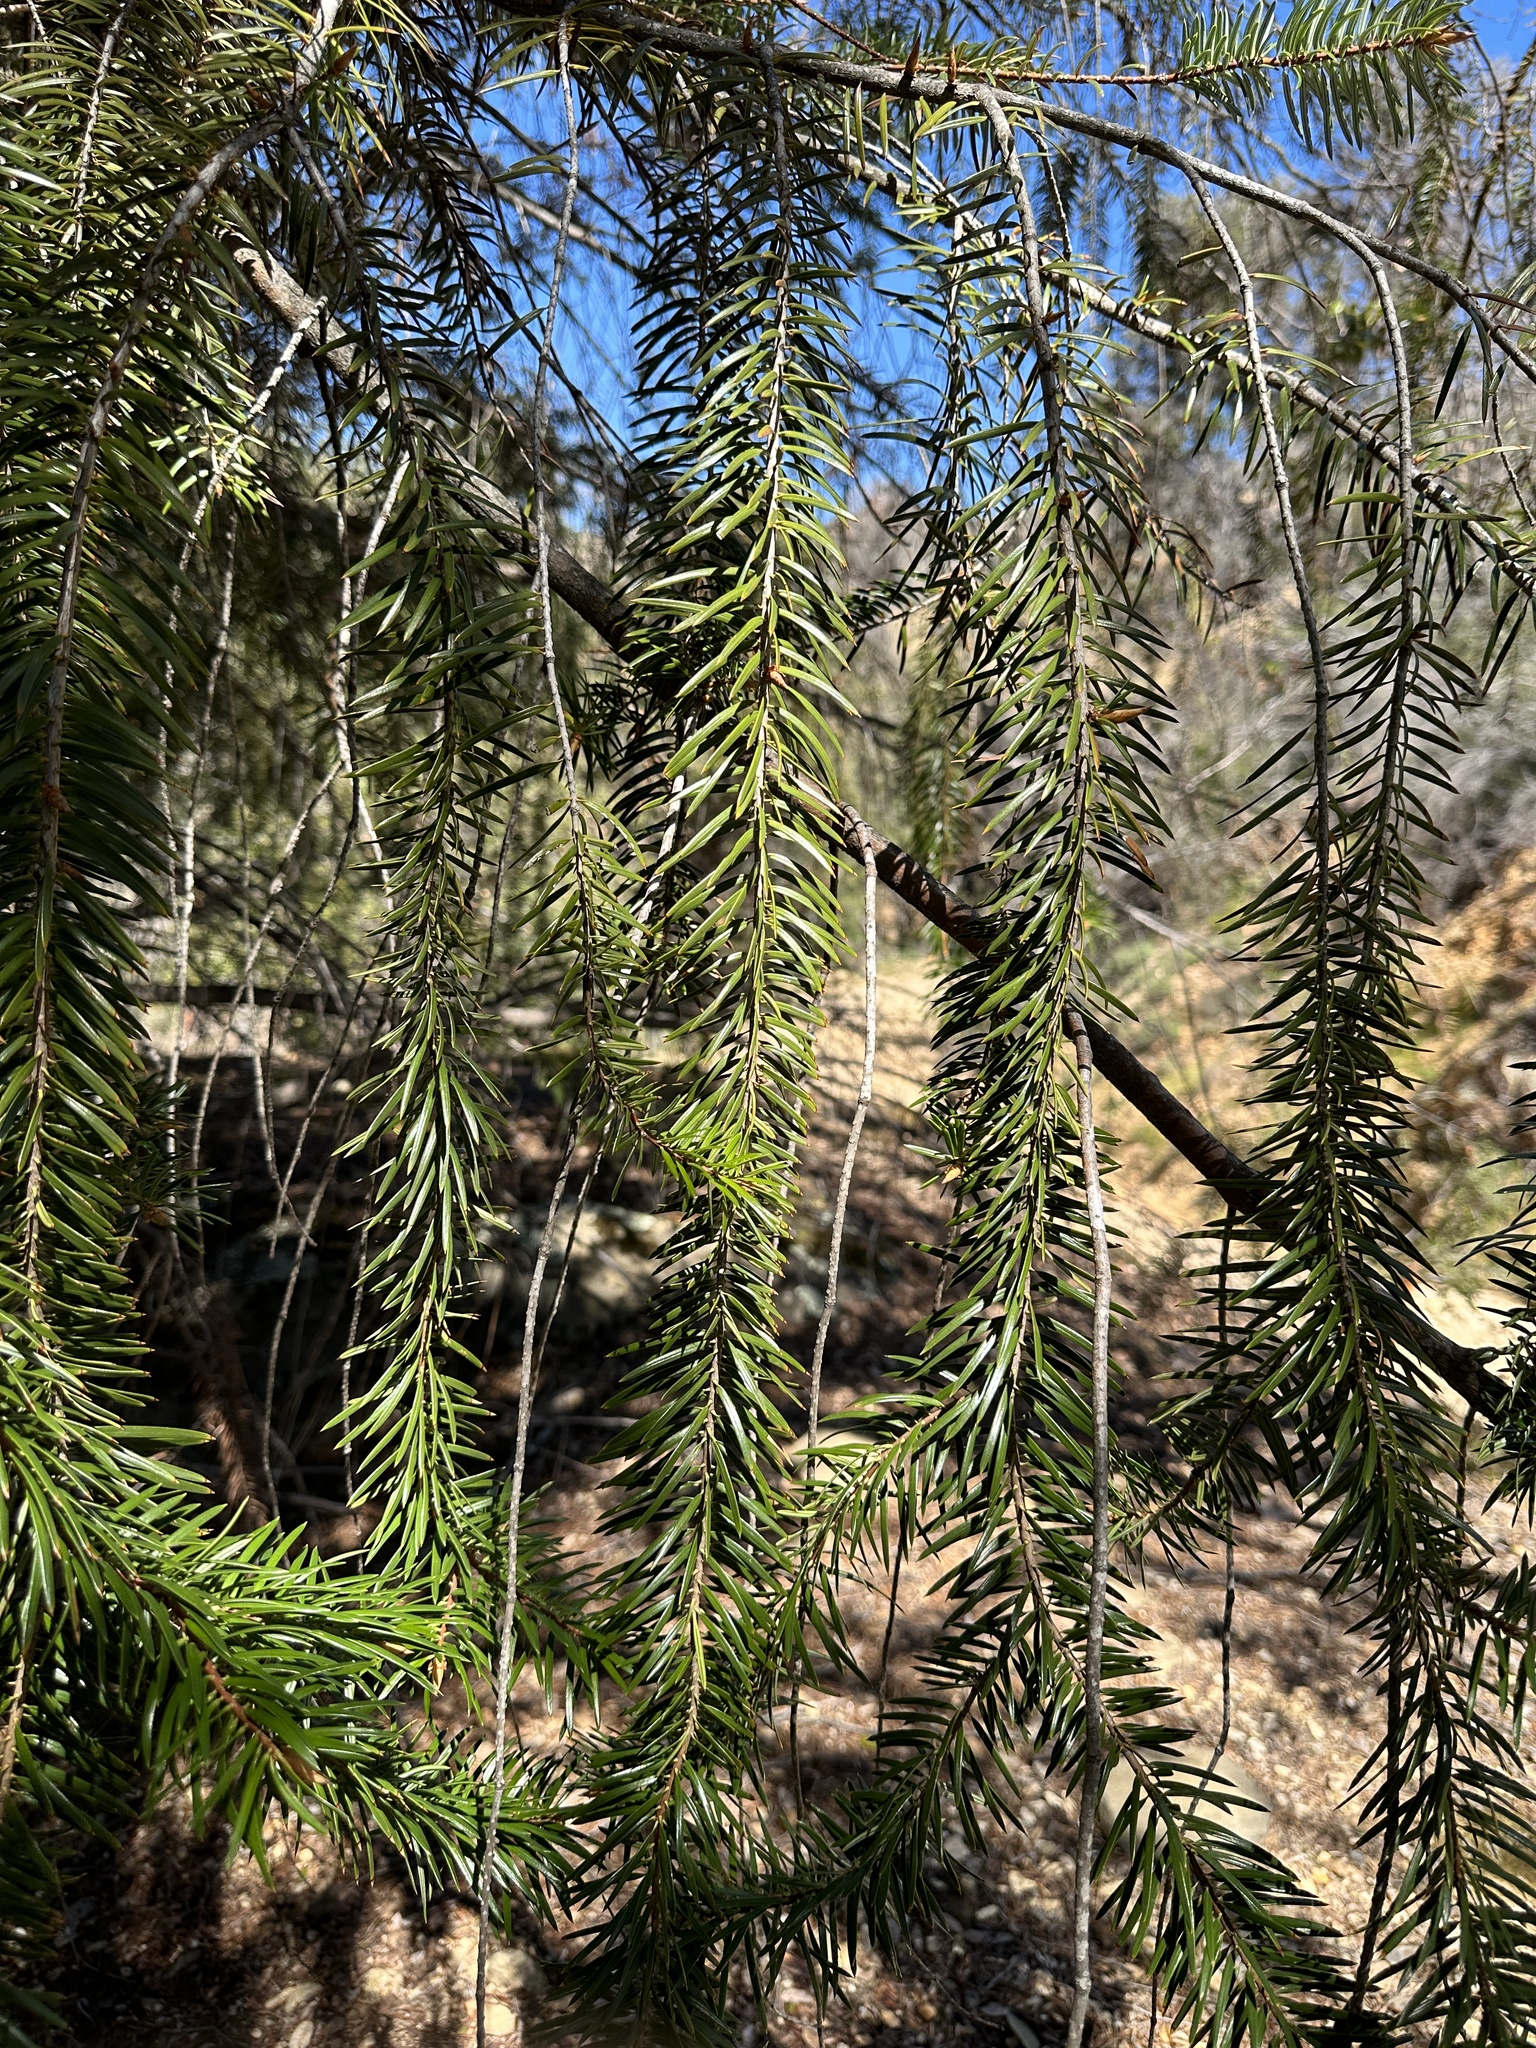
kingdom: Plantae
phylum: Tracheophyta
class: Pinopsida
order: Pinales
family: Pinaceae
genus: Abies
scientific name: Abies bracteata
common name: Bristlecone fir
